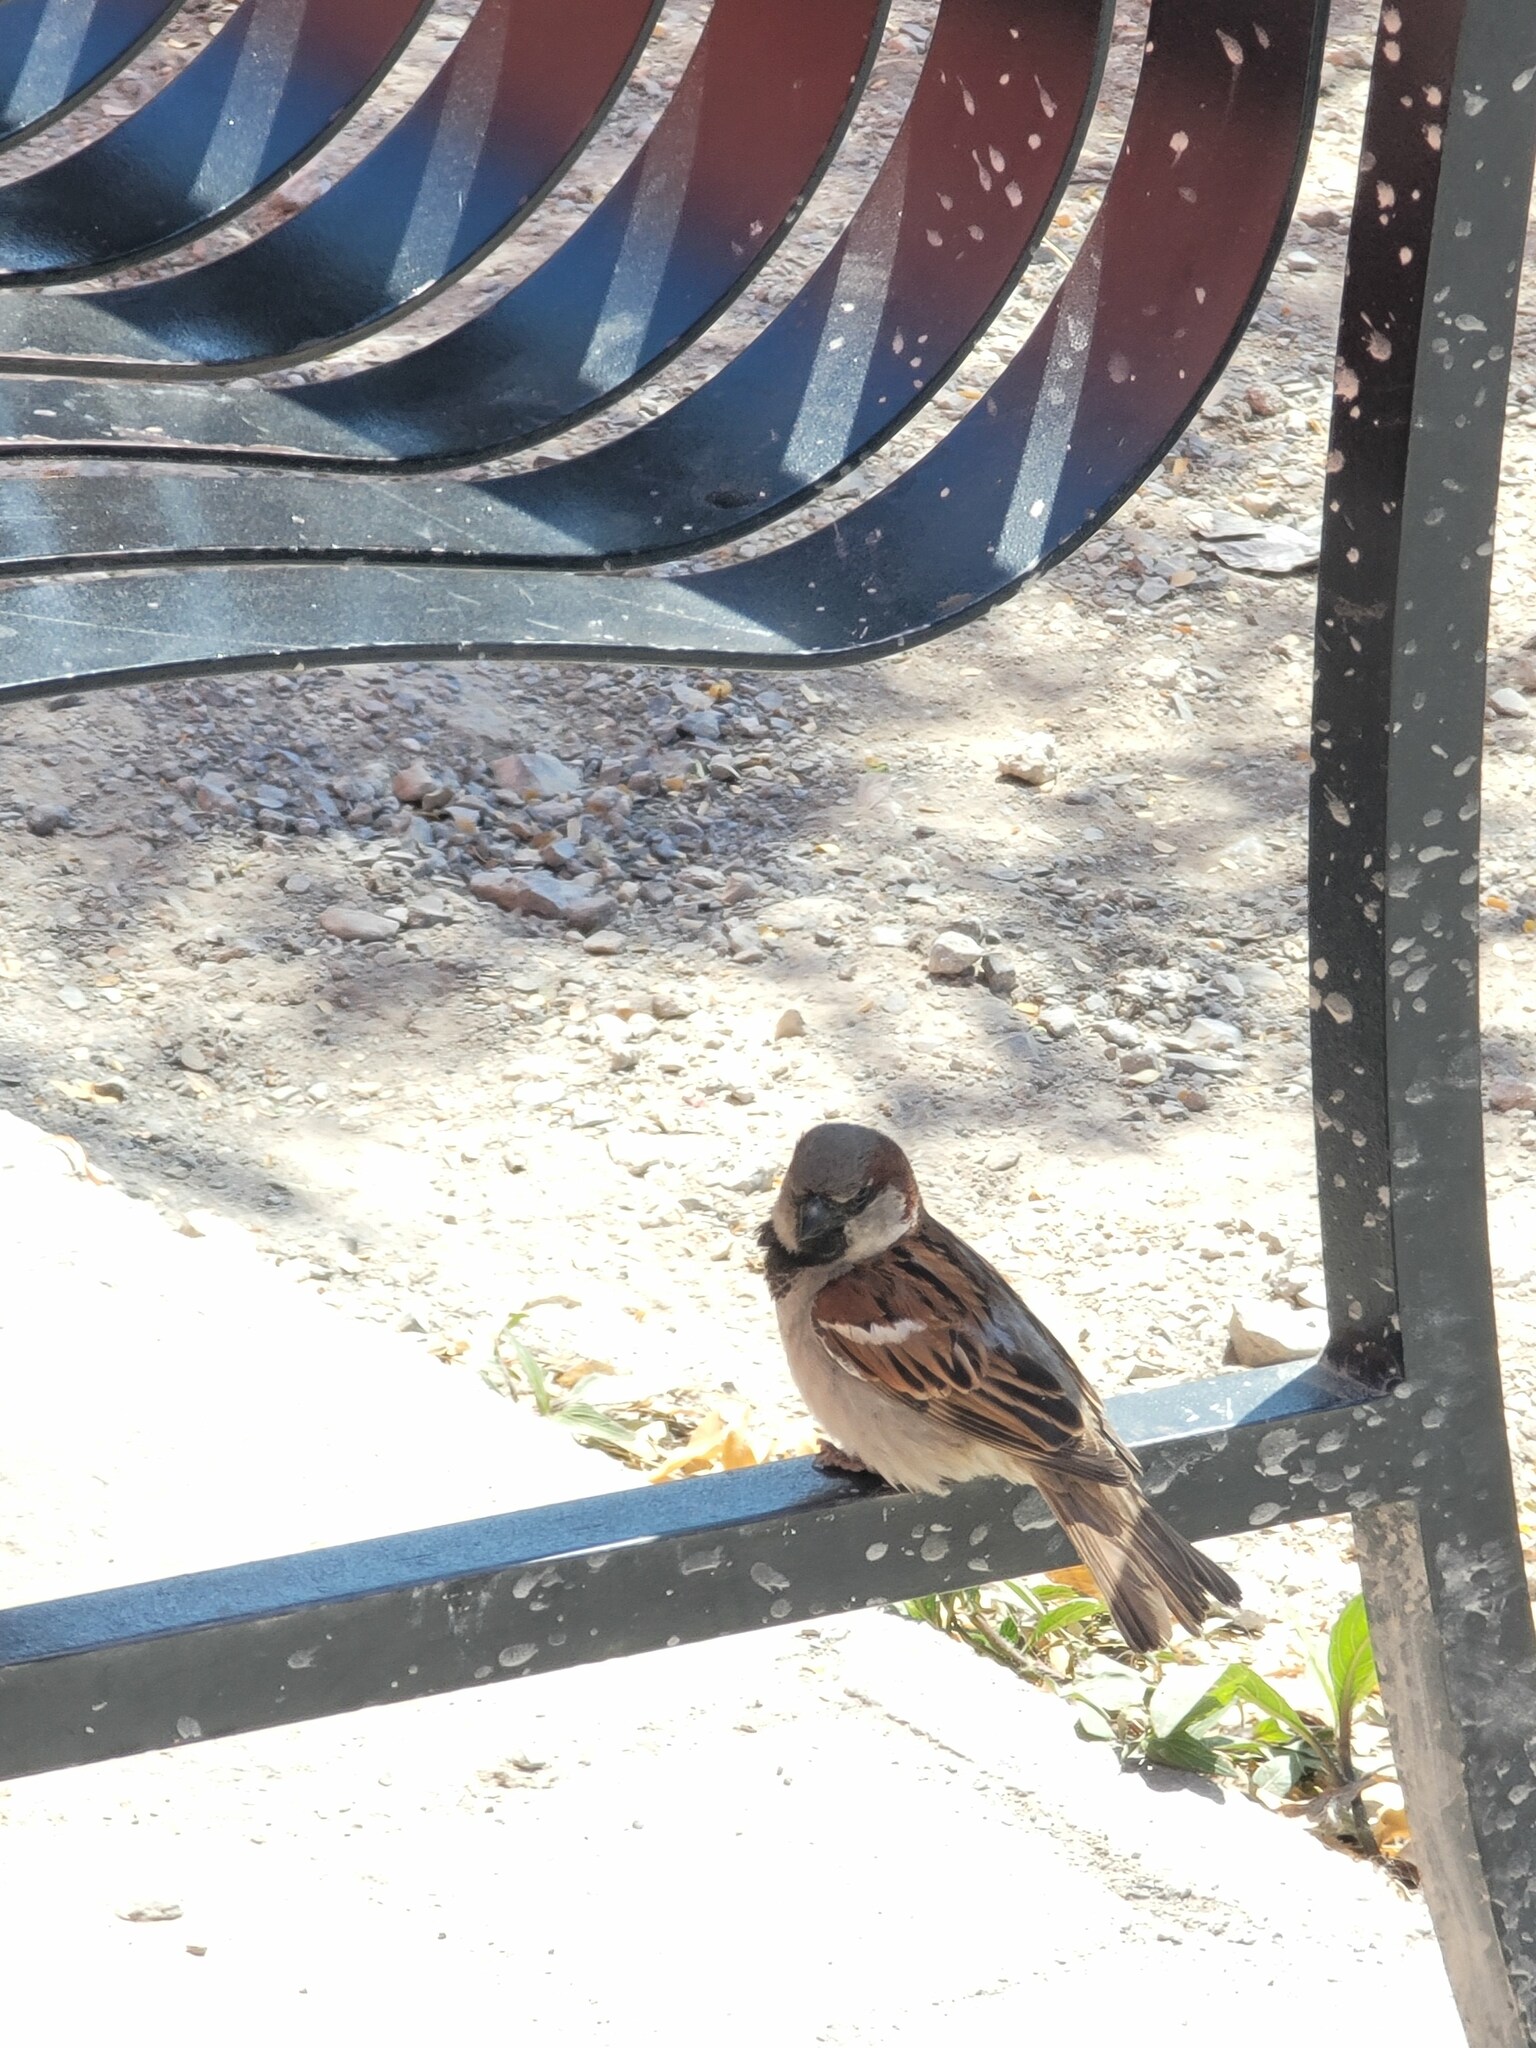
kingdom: Animalia
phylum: Chordata
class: Aves
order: Passeriformes
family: Passeridae
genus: Passer
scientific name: Passer domesticus
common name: House sparrow
